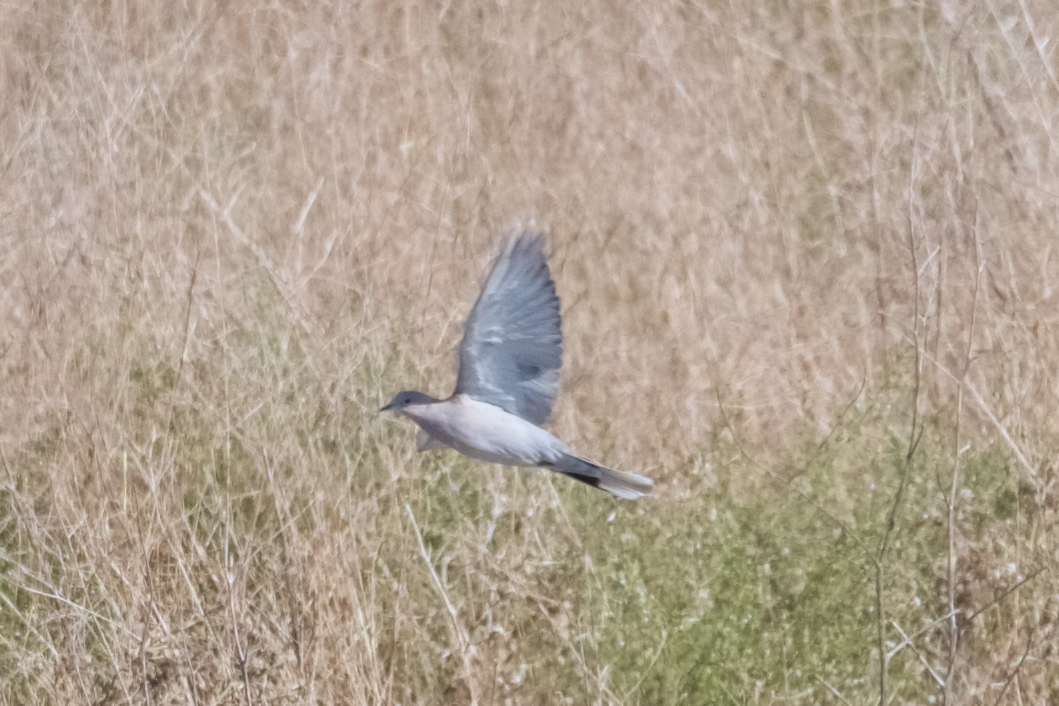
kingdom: Animalia
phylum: Chordata
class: Aves
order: Columbiformes
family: Columbidae
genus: Streptopelia
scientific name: Streptopelia decaocto
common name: Eurasian collared dove
